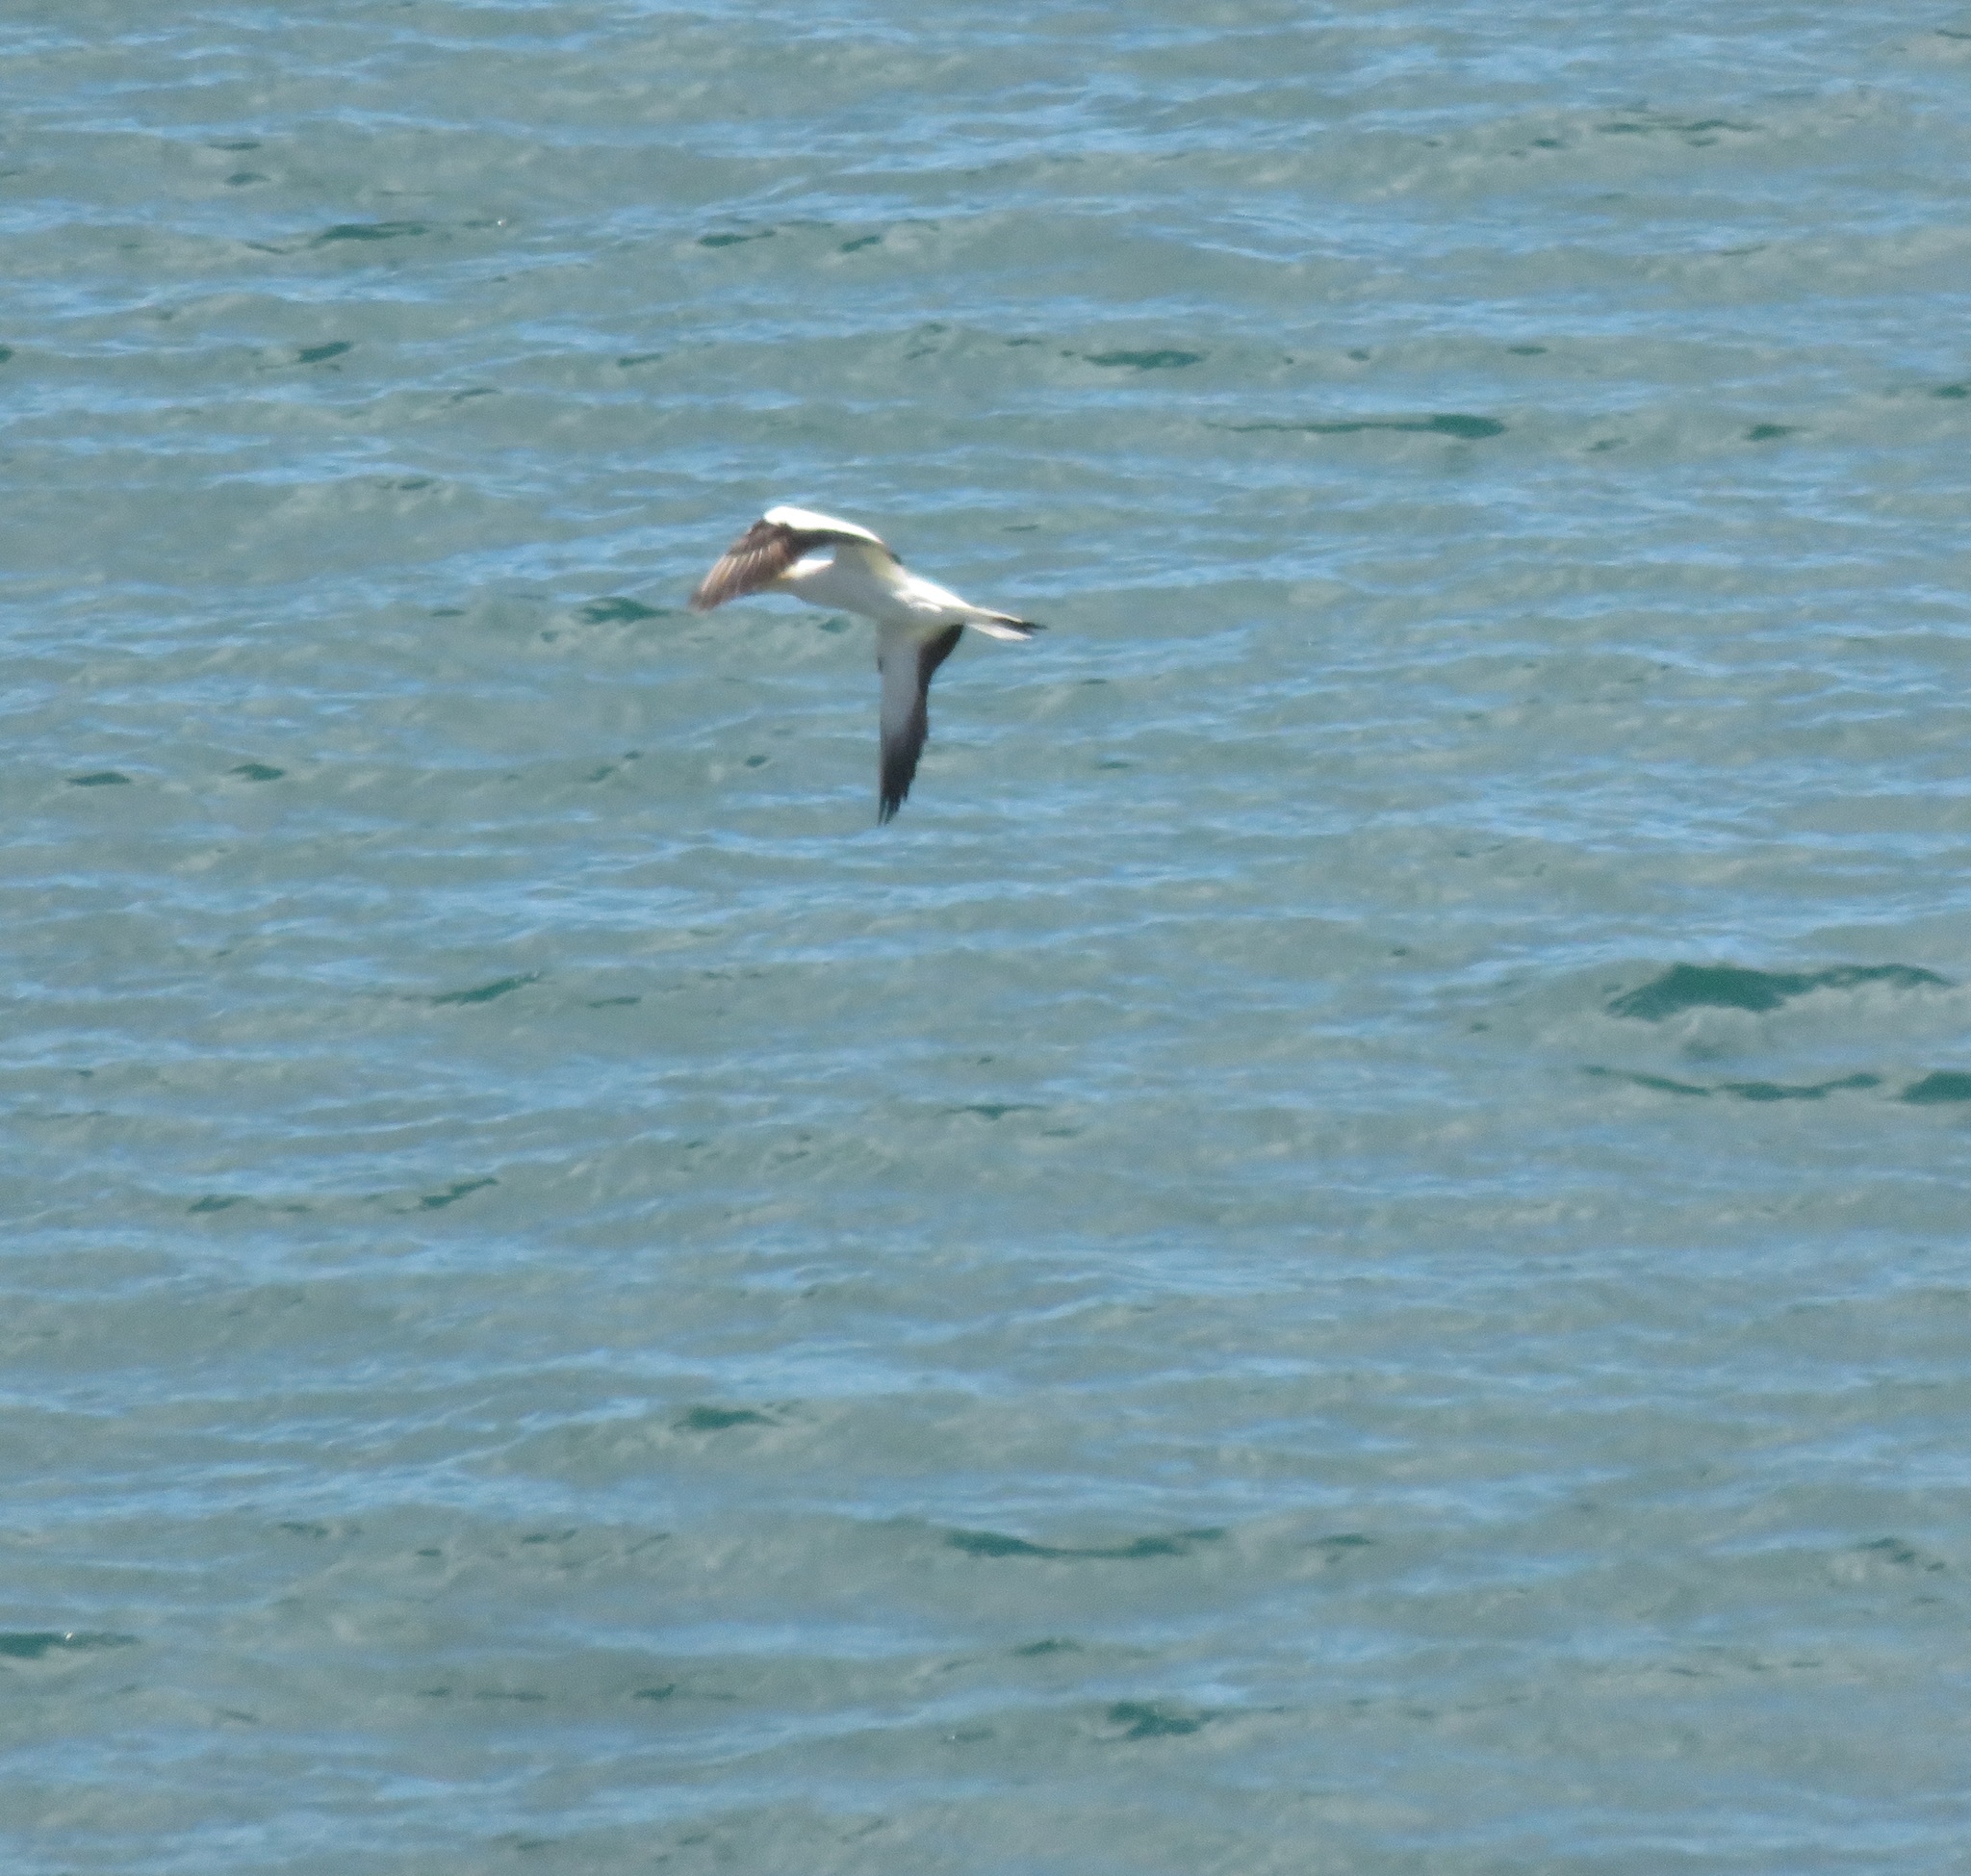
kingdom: Animalia
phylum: Chordata
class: Aves
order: Suliformes
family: Sulidae
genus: Morus
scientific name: Morus serrator
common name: Australasian gannet
